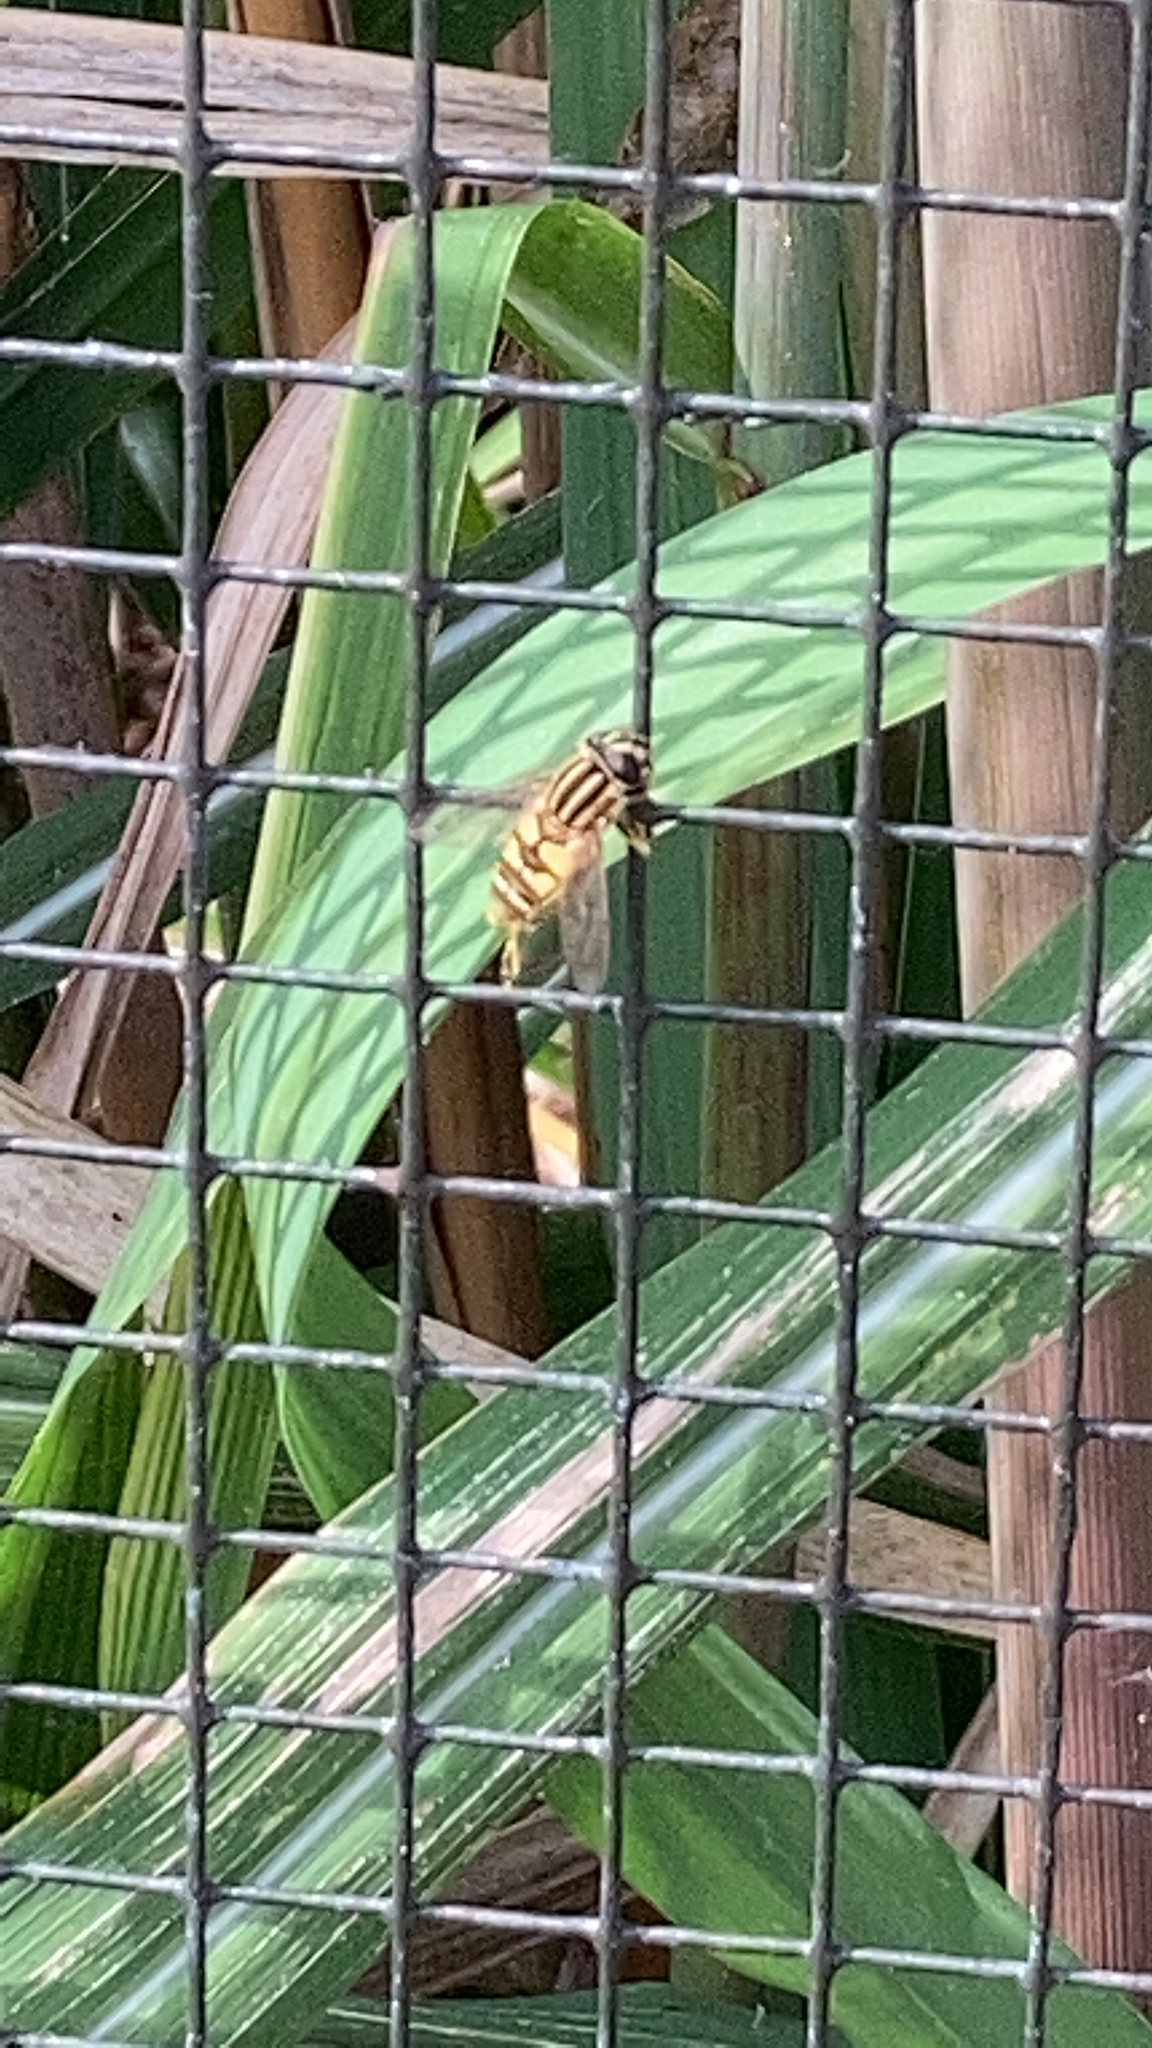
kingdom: Animalia
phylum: Arthropoda
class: Insecta
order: Diptera
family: Syrphidae
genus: Helophilus
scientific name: Helophilus pendulus
